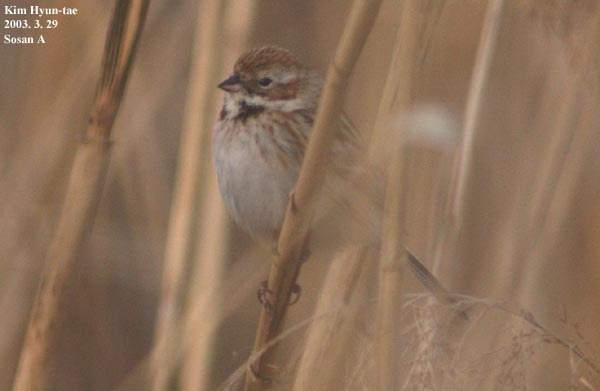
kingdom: Animalia
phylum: Chordata
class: Aves
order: Passeriformes
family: Emberizidae
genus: Emberiza
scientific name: Emberiza pallasi
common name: Pallas's reed bunting
